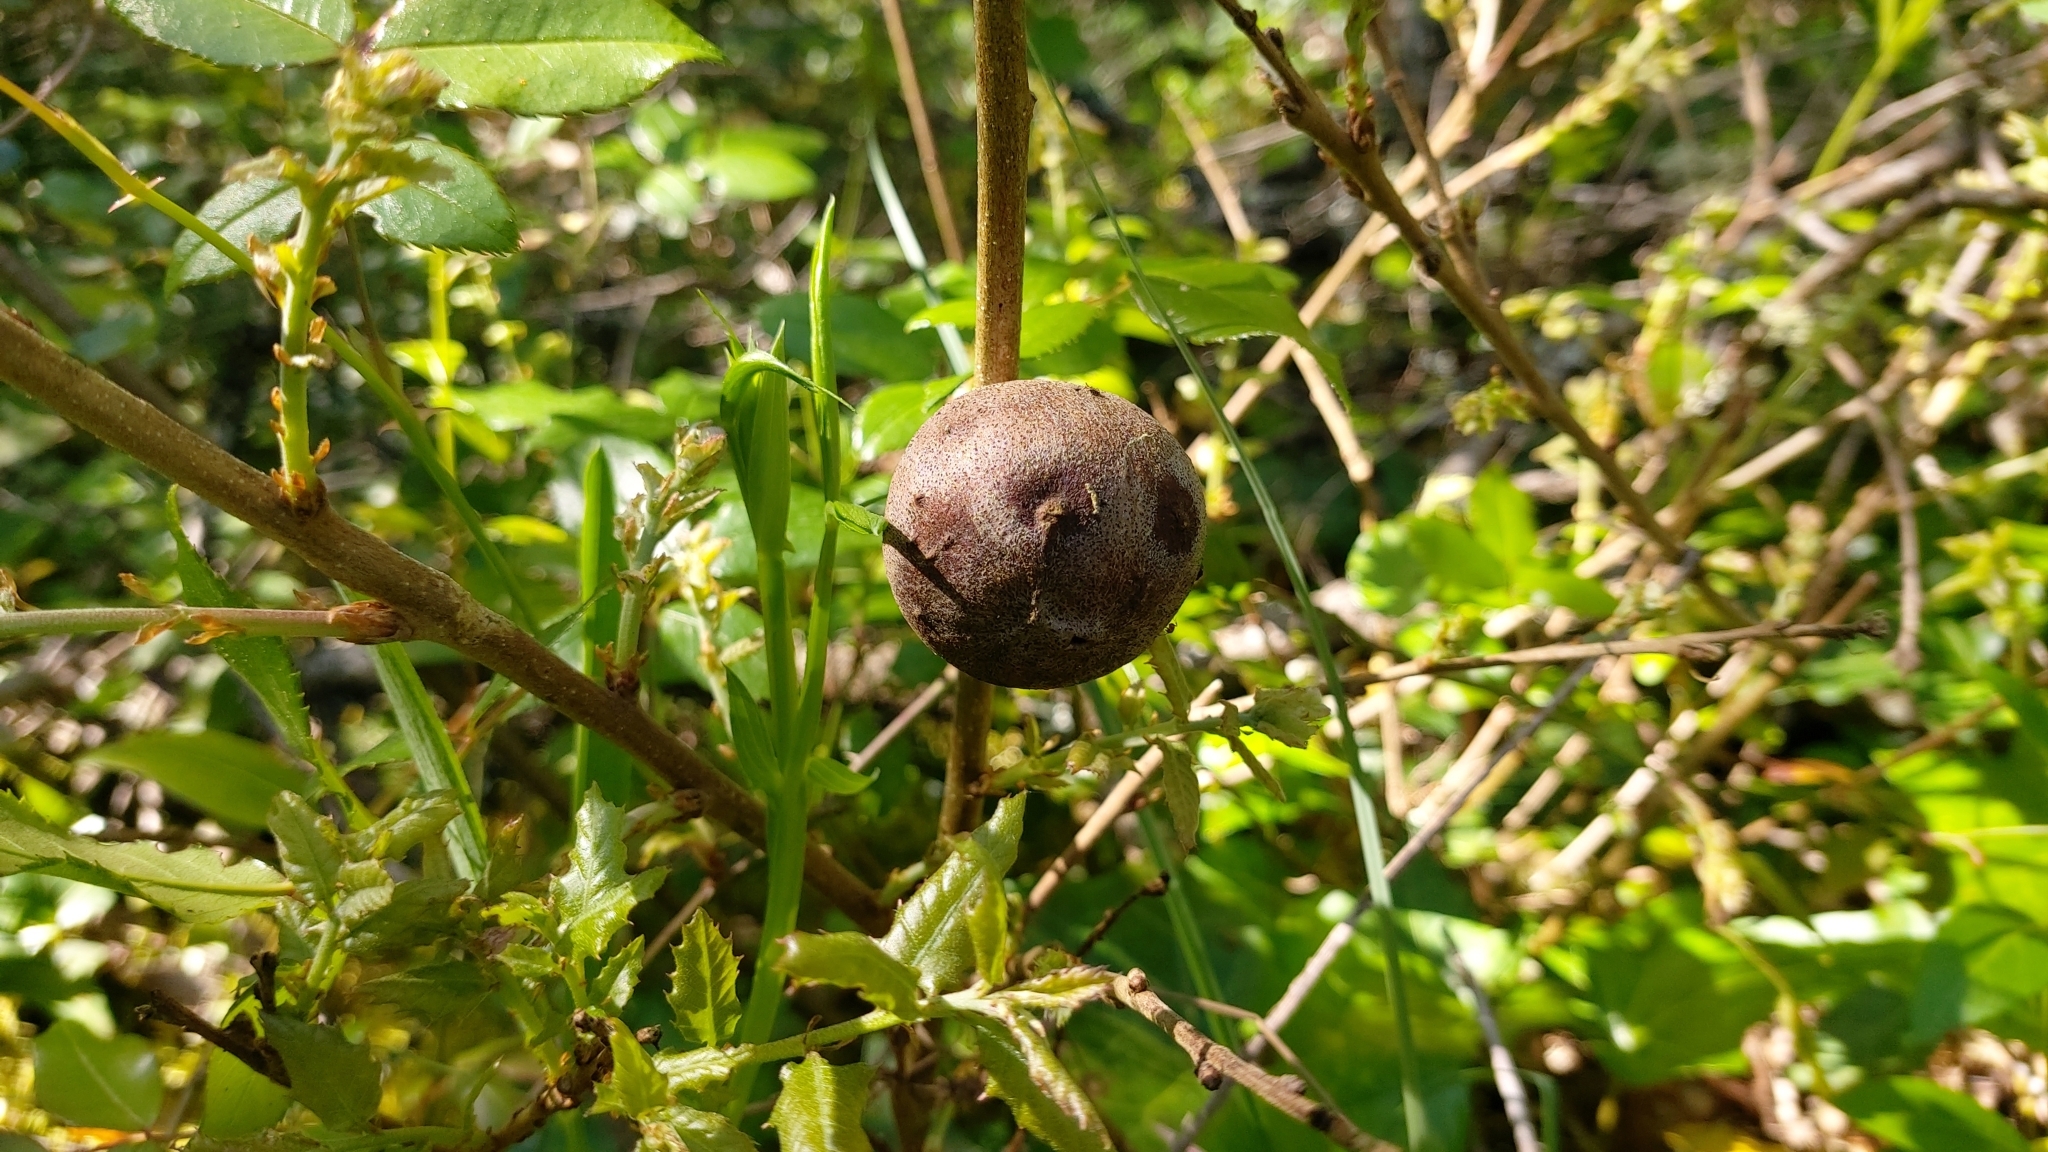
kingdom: Animalia
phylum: Arthropoda
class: Insecta
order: Hymenoptera
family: Cynipidae
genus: Andricus
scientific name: Andricus quercustozae
